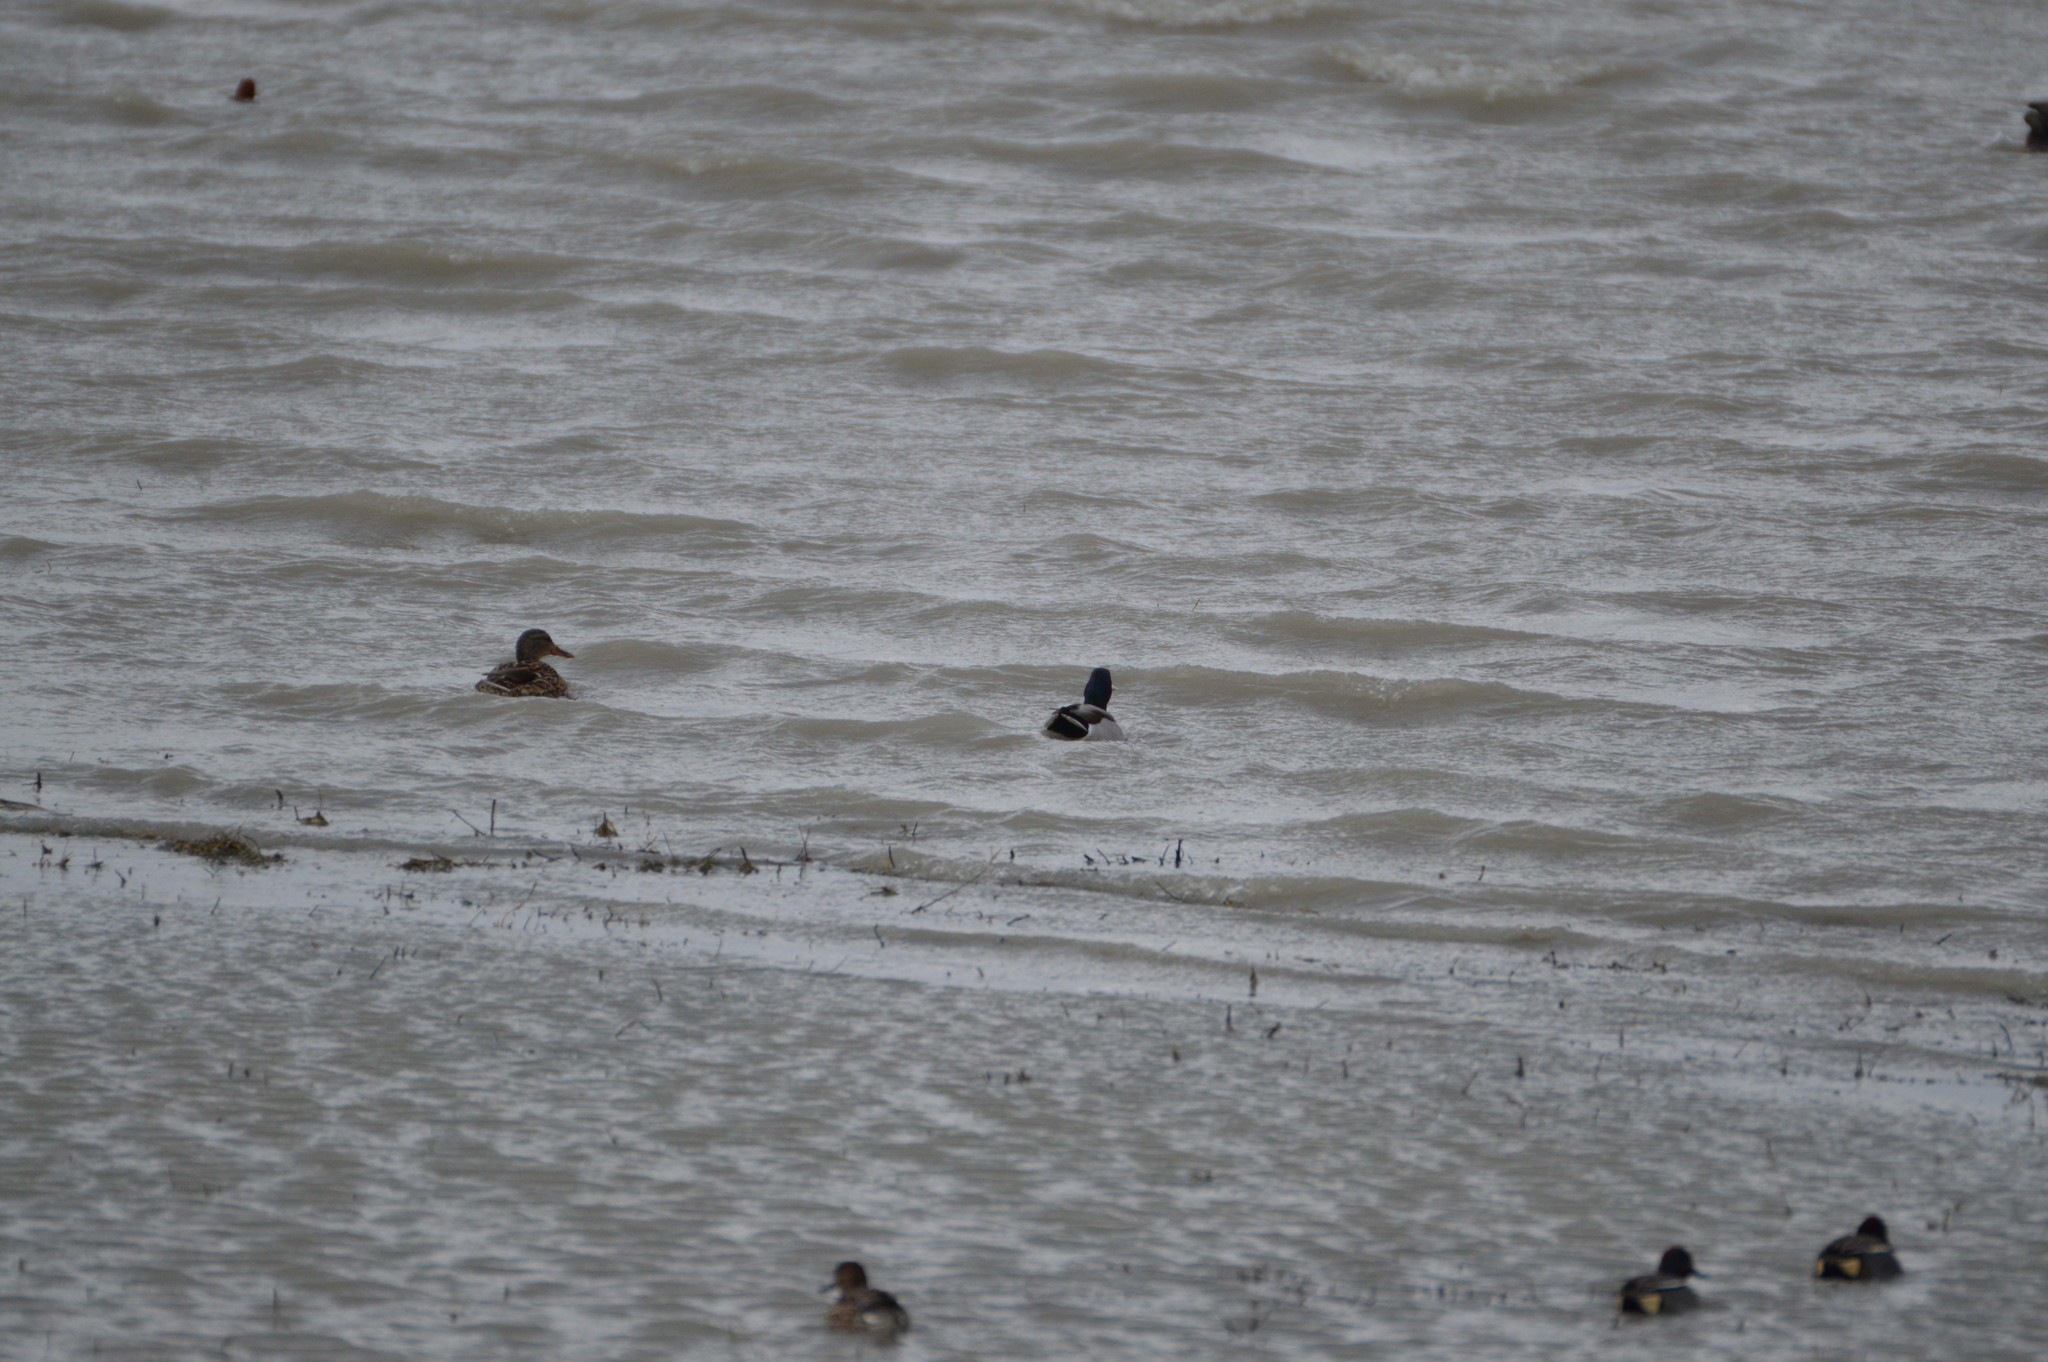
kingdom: Animalia
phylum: Chordata
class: Aves
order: Anseriformes
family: Anatidae
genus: Anas
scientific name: Anas platyrhynchos
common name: Mallard
